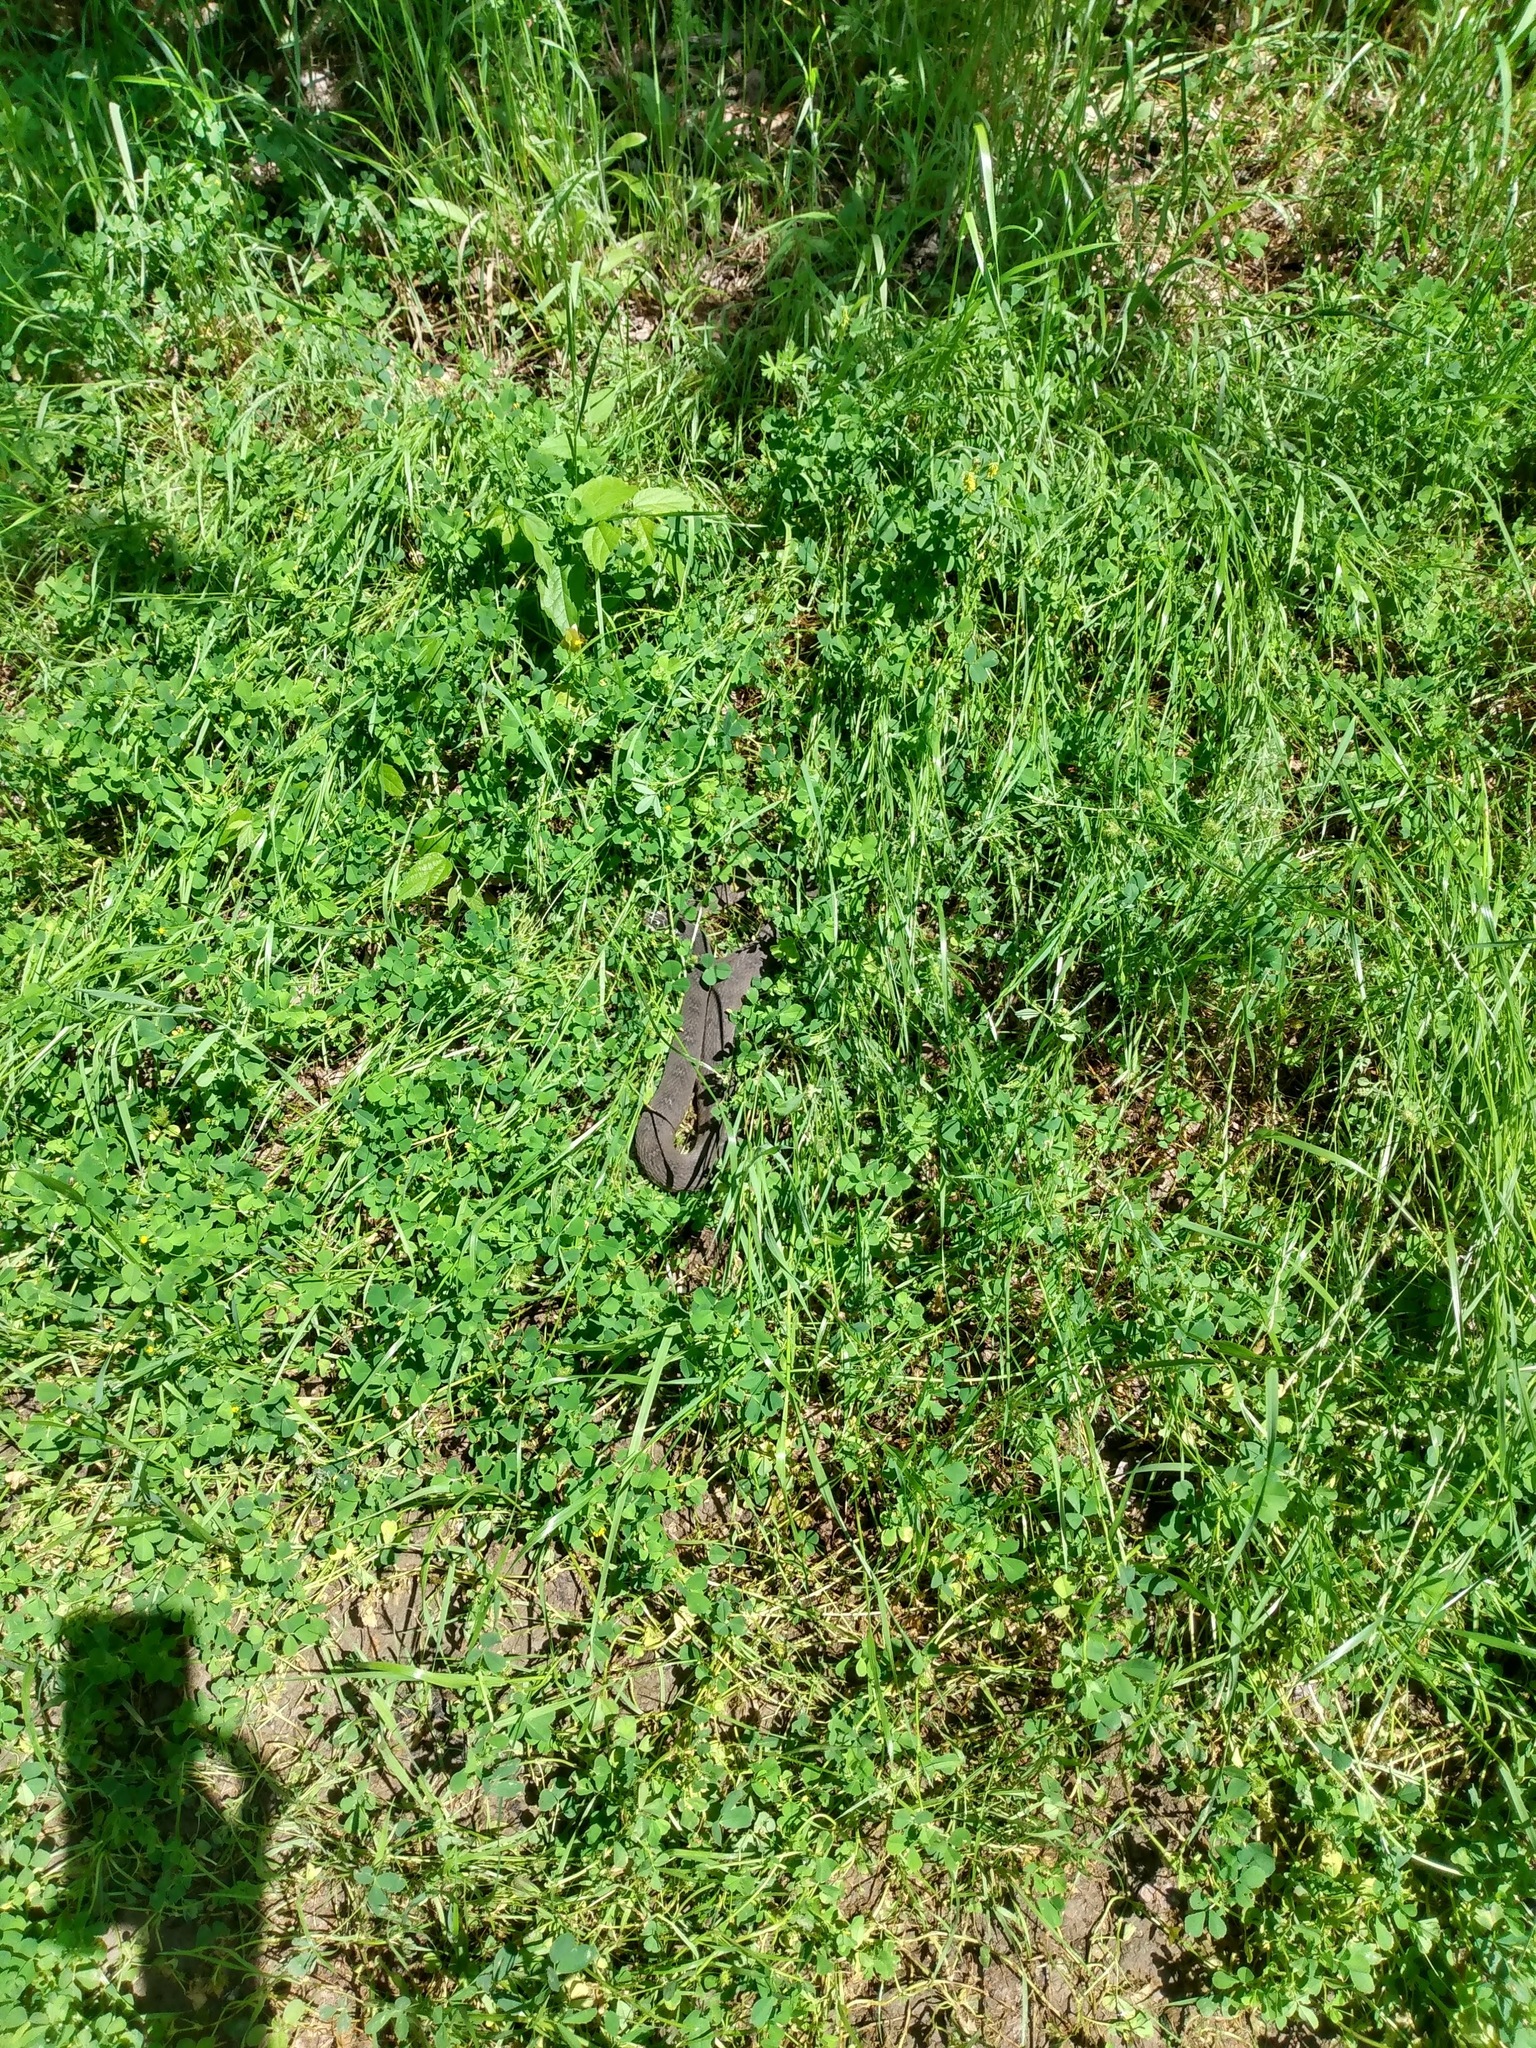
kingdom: Animalia
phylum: Chordata
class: Squamata
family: Colubridae
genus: Nerodia
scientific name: Nerodia erythrogaster
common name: Plainbelly water snake
